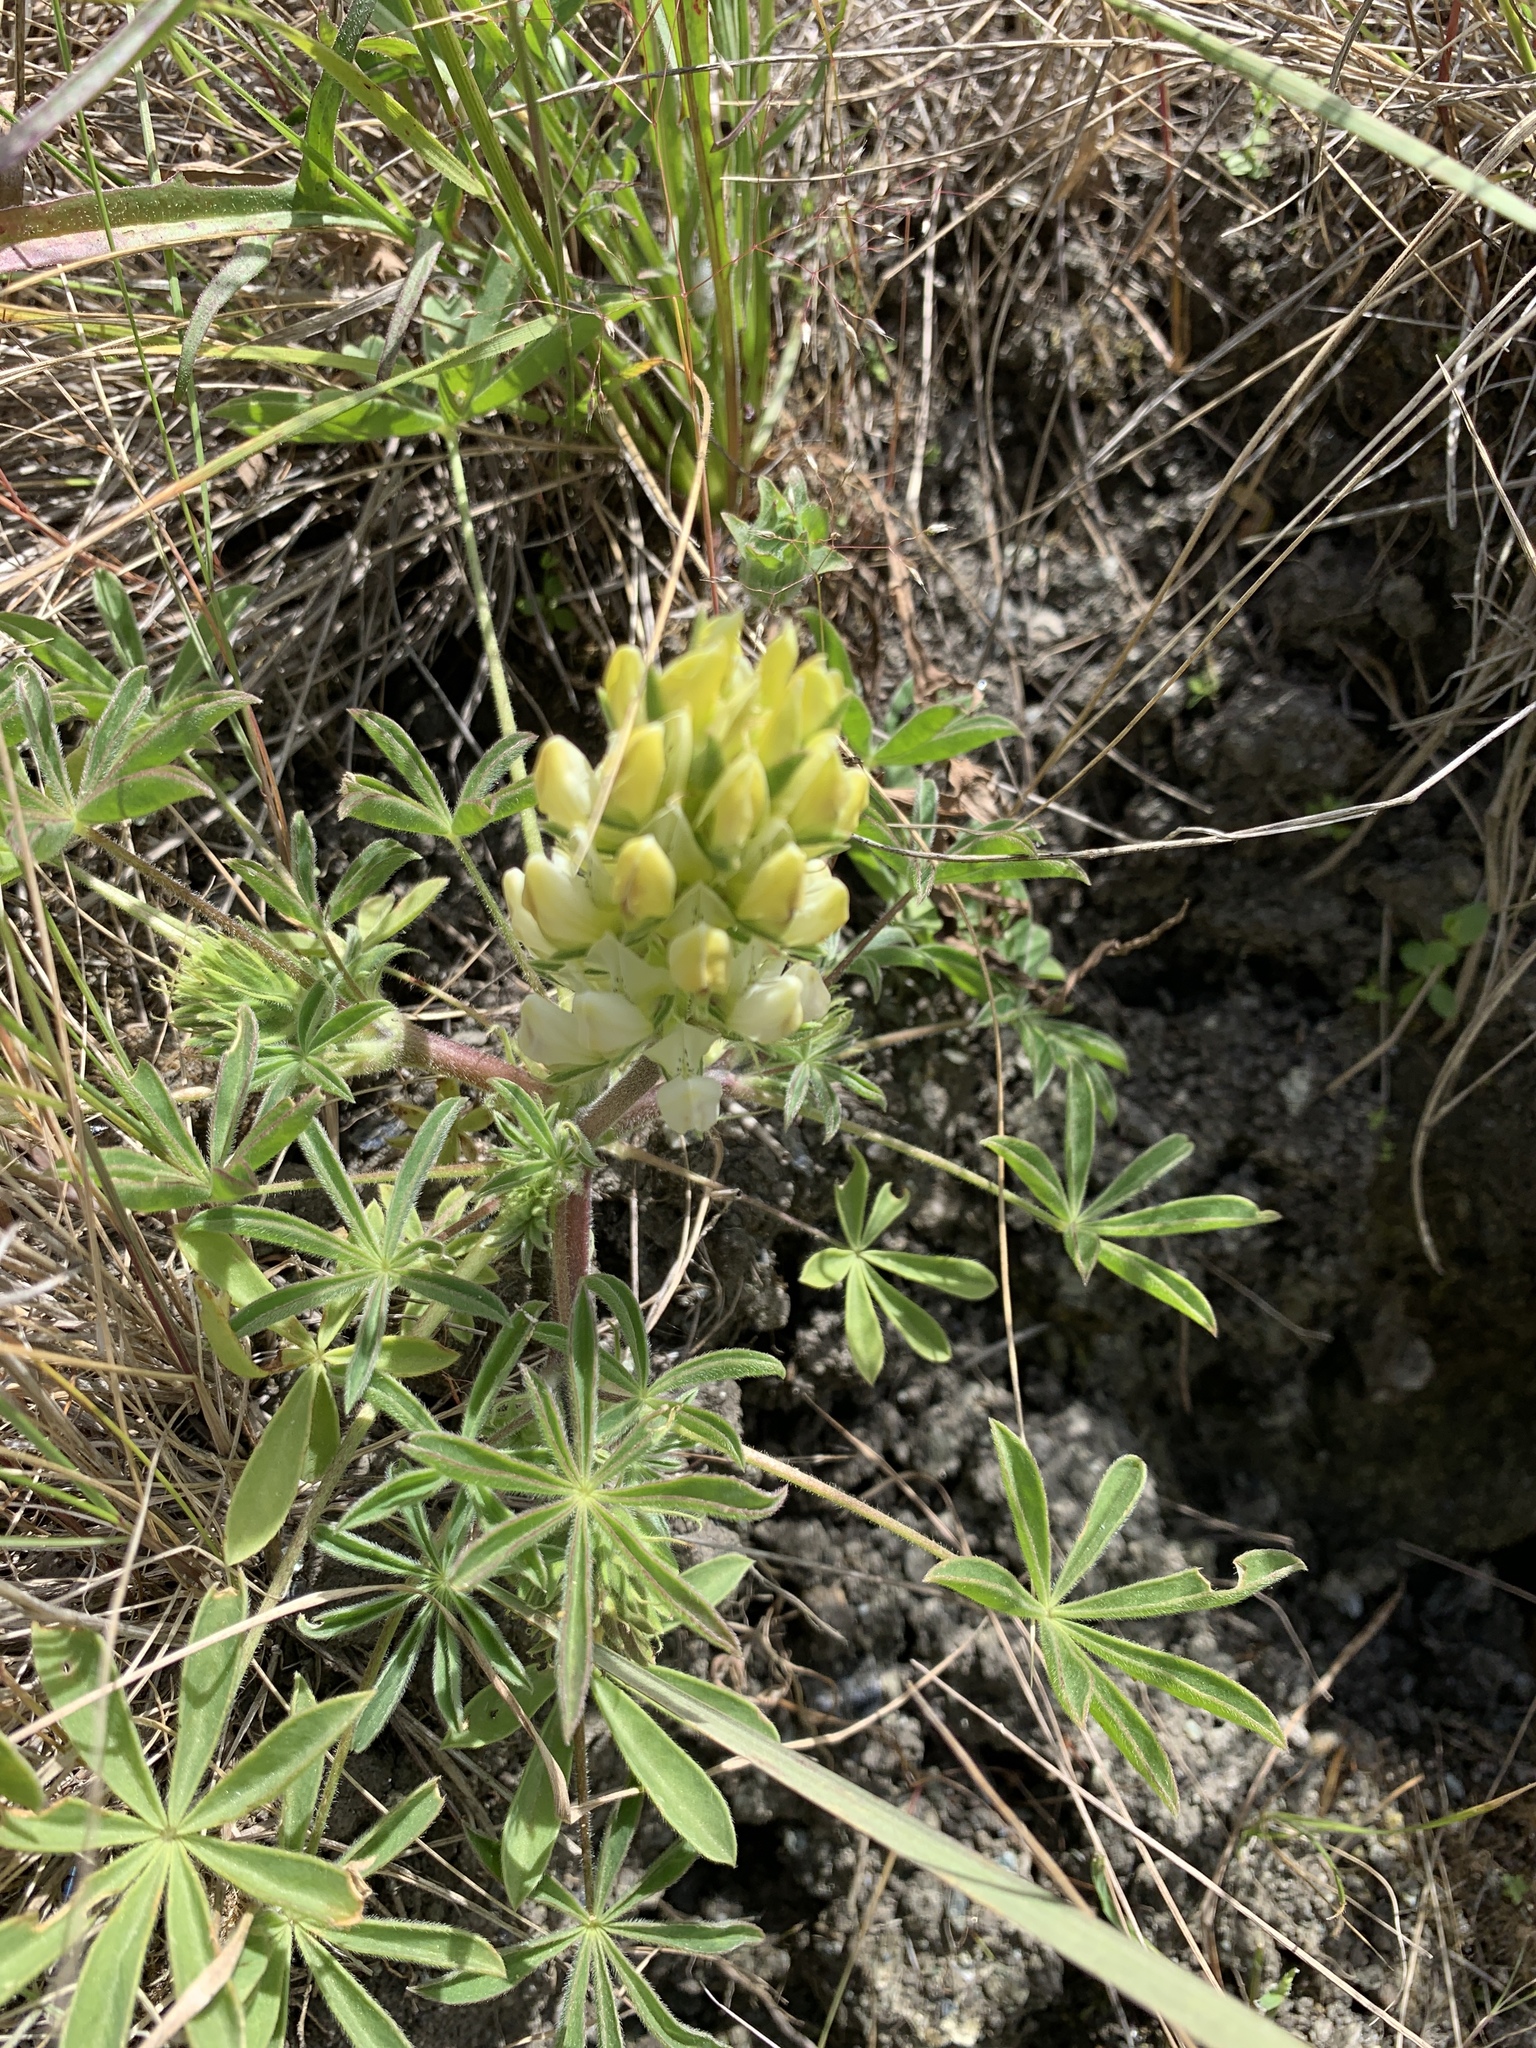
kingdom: Plantae
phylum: Tracheophyta
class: Magnoliopsida
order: Fabales
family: Fabaceae
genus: Lupinus
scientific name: Lupinus microcarpus
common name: Chick lupine
